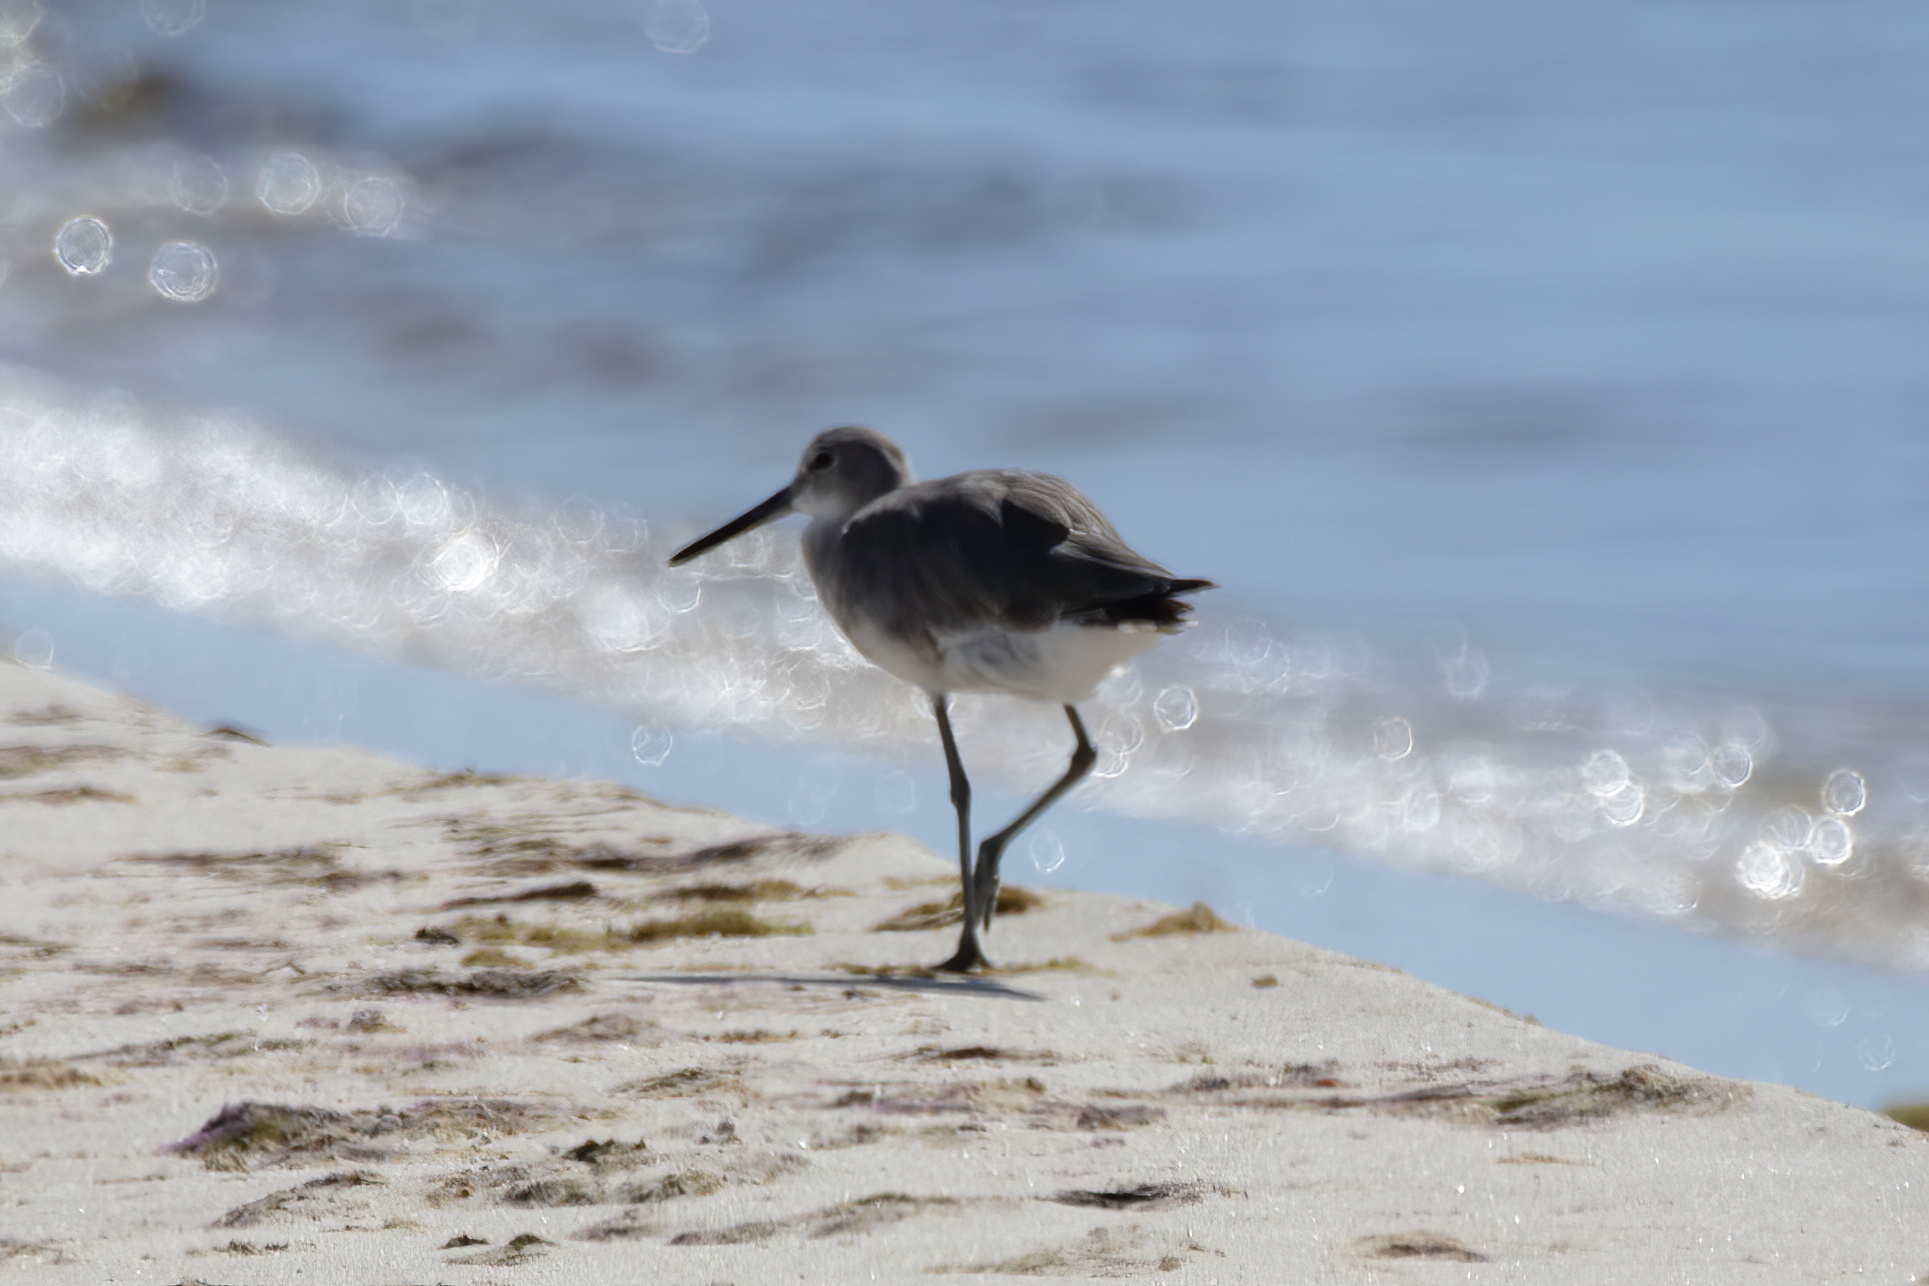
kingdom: Animalia
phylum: Chordata
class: Aves
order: Charadriiformes
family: Scolopacidae
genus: Tringa
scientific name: Tringa semipalmata
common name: Willet
